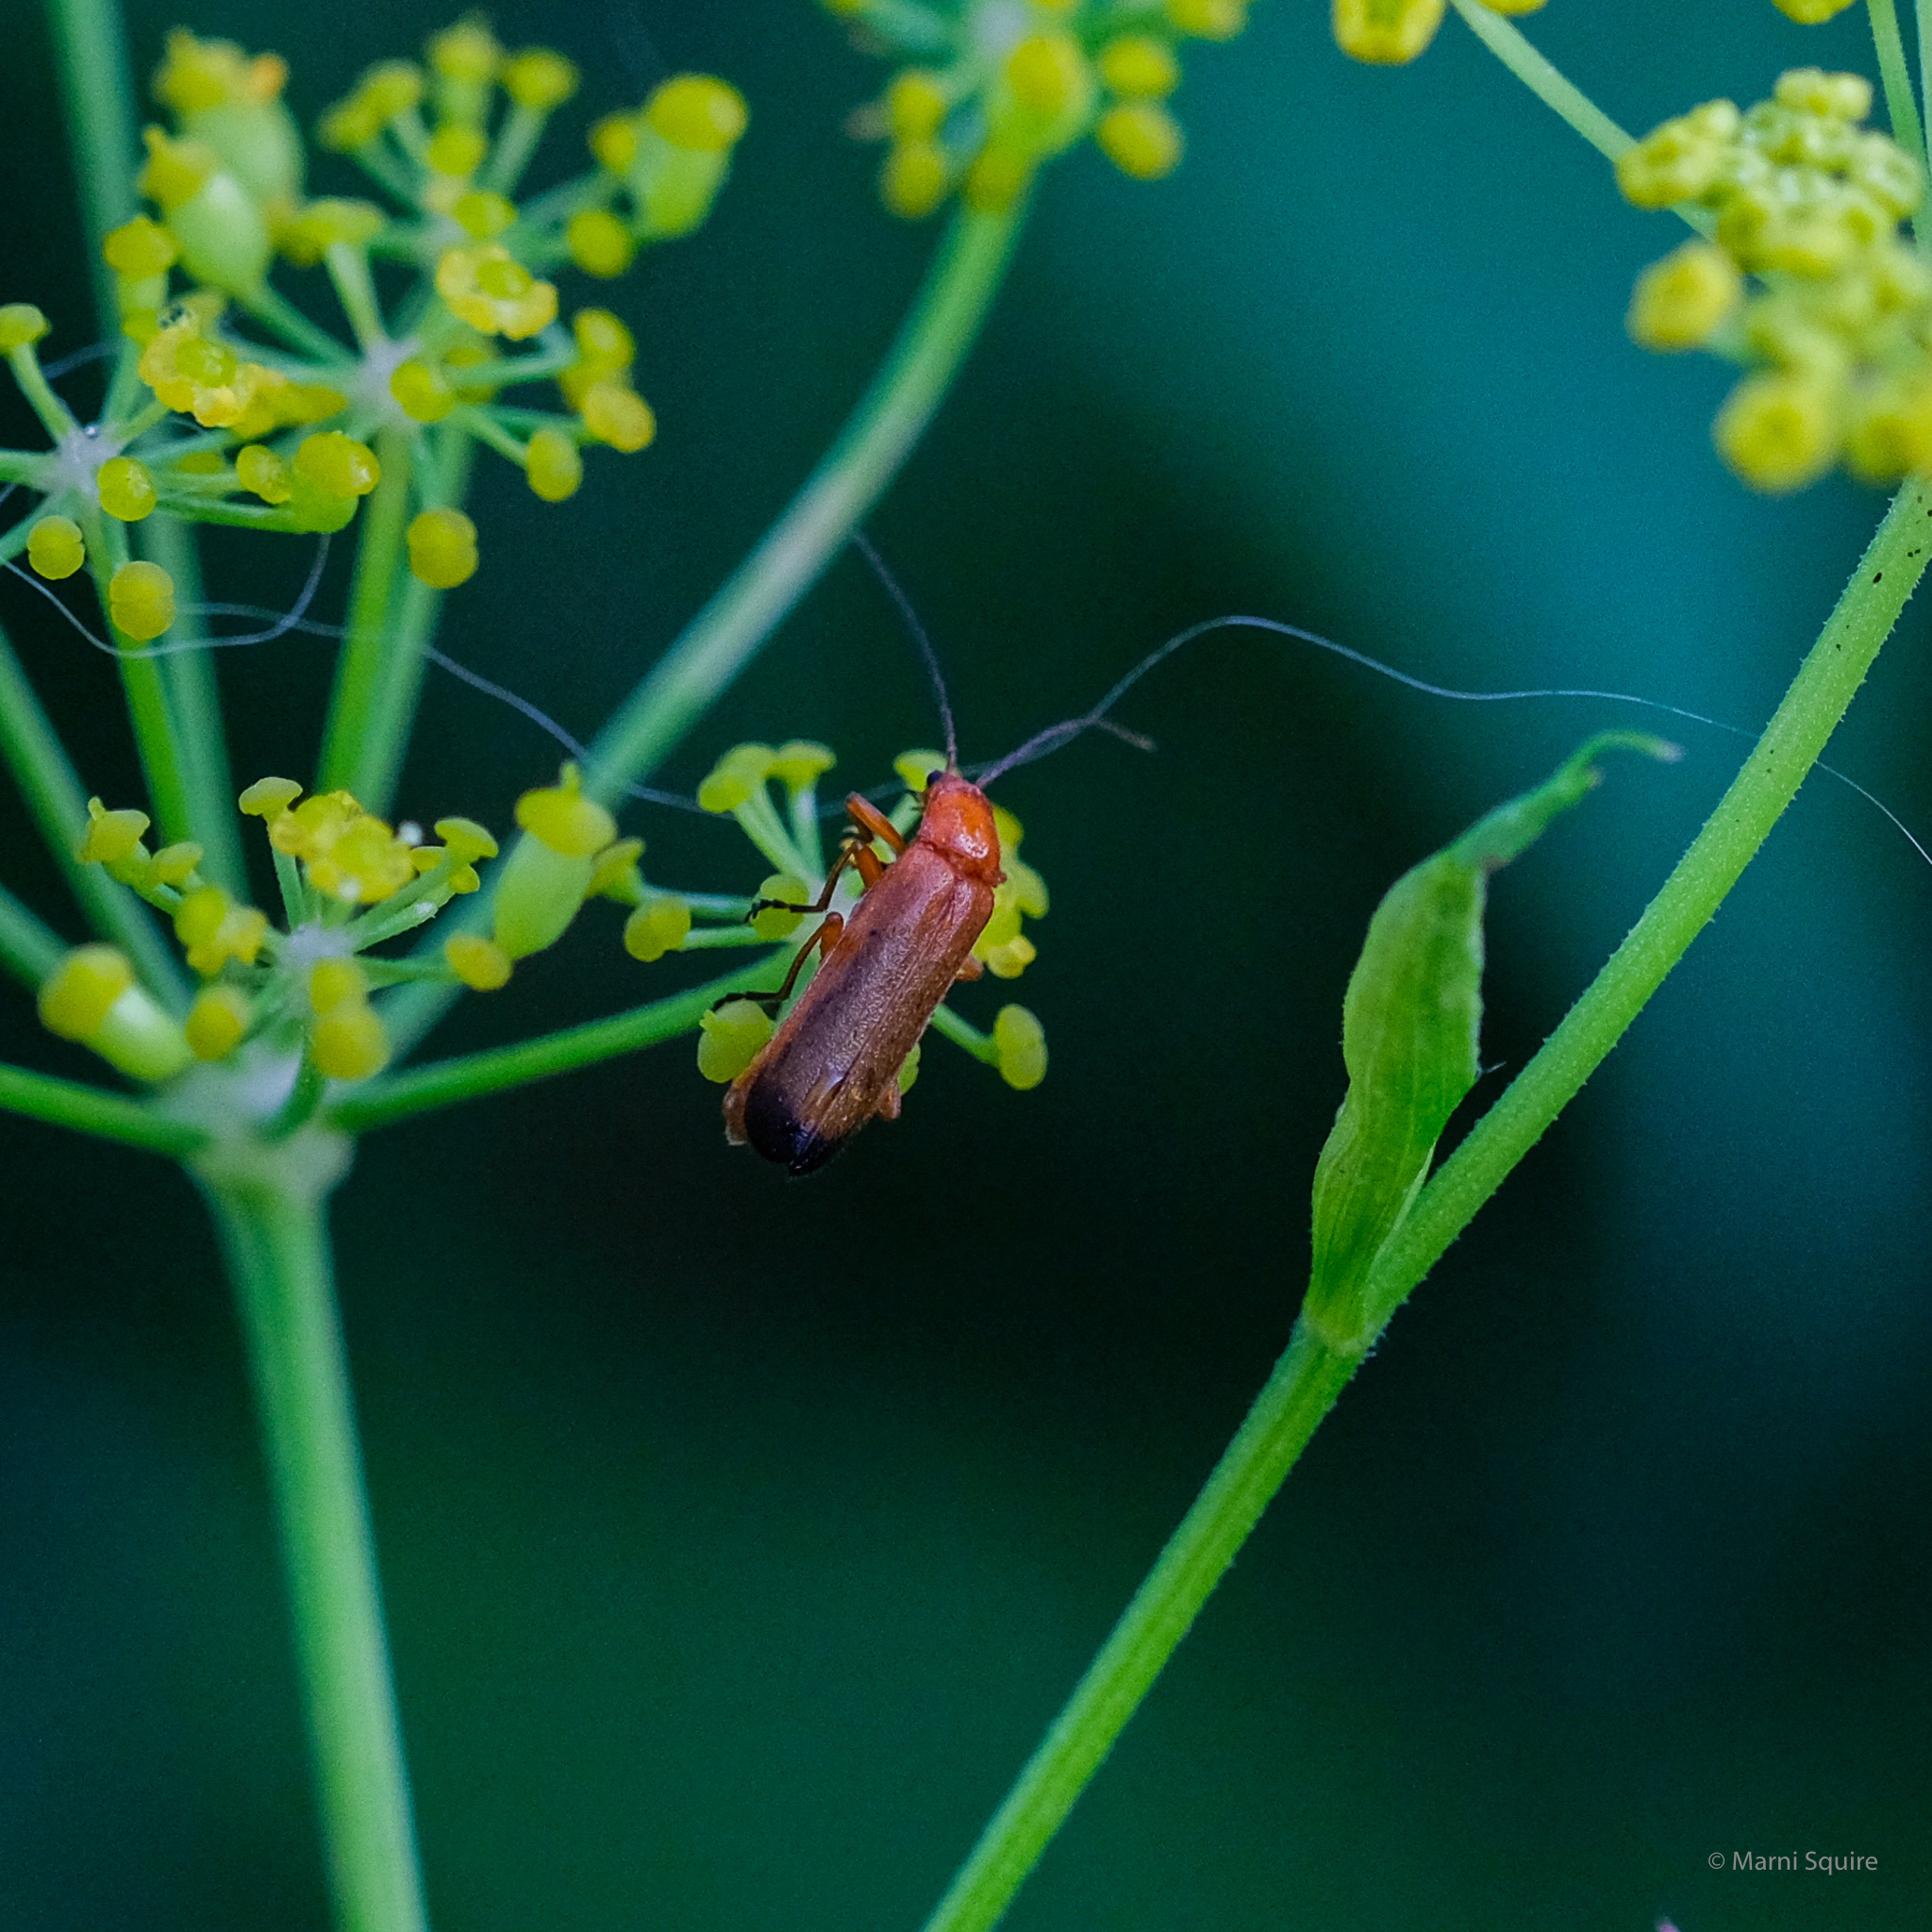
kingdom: Animalia
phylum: Arthropoda
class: Insecta
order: Coleoptera
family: Cantharidae
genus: Rhagonycha
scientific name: Rhagonycha fulva
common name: Common red soldier beetle
